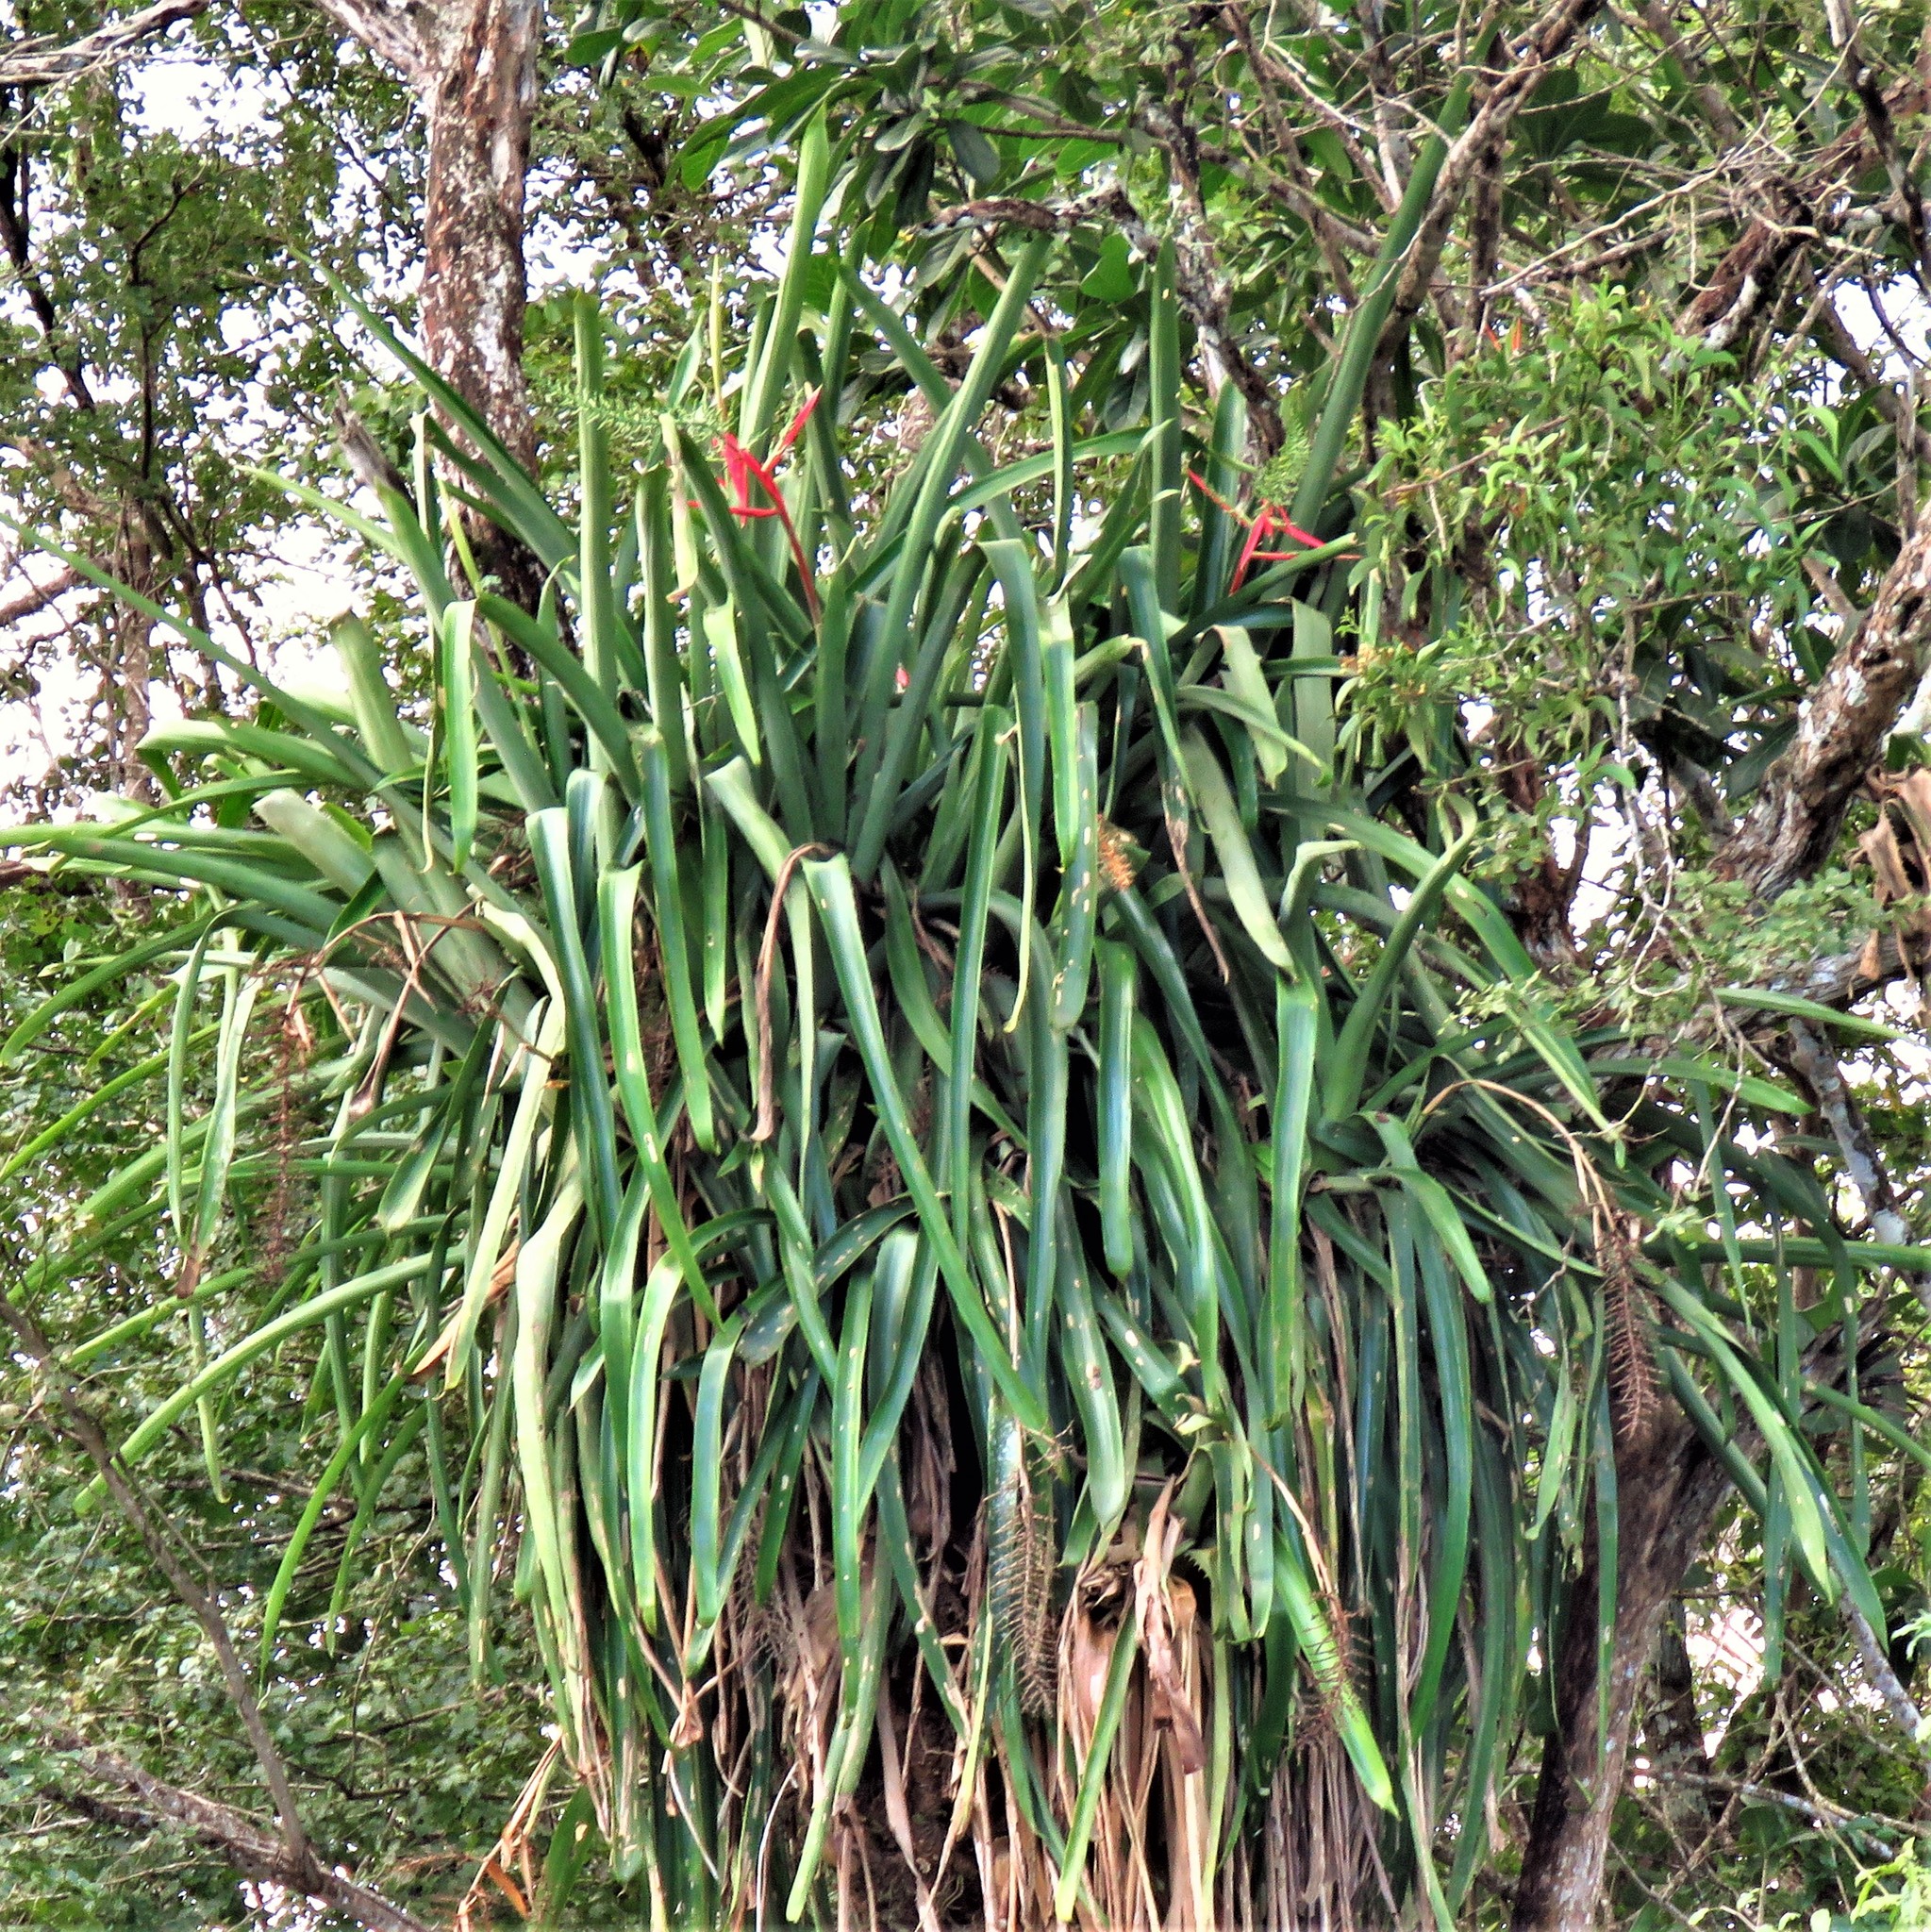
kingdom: Plantae
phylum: Tracheophyta
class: Liliopsida
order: Poales
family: Bromeliaceae
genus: Aechmea
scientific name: Aechmea bracteata
